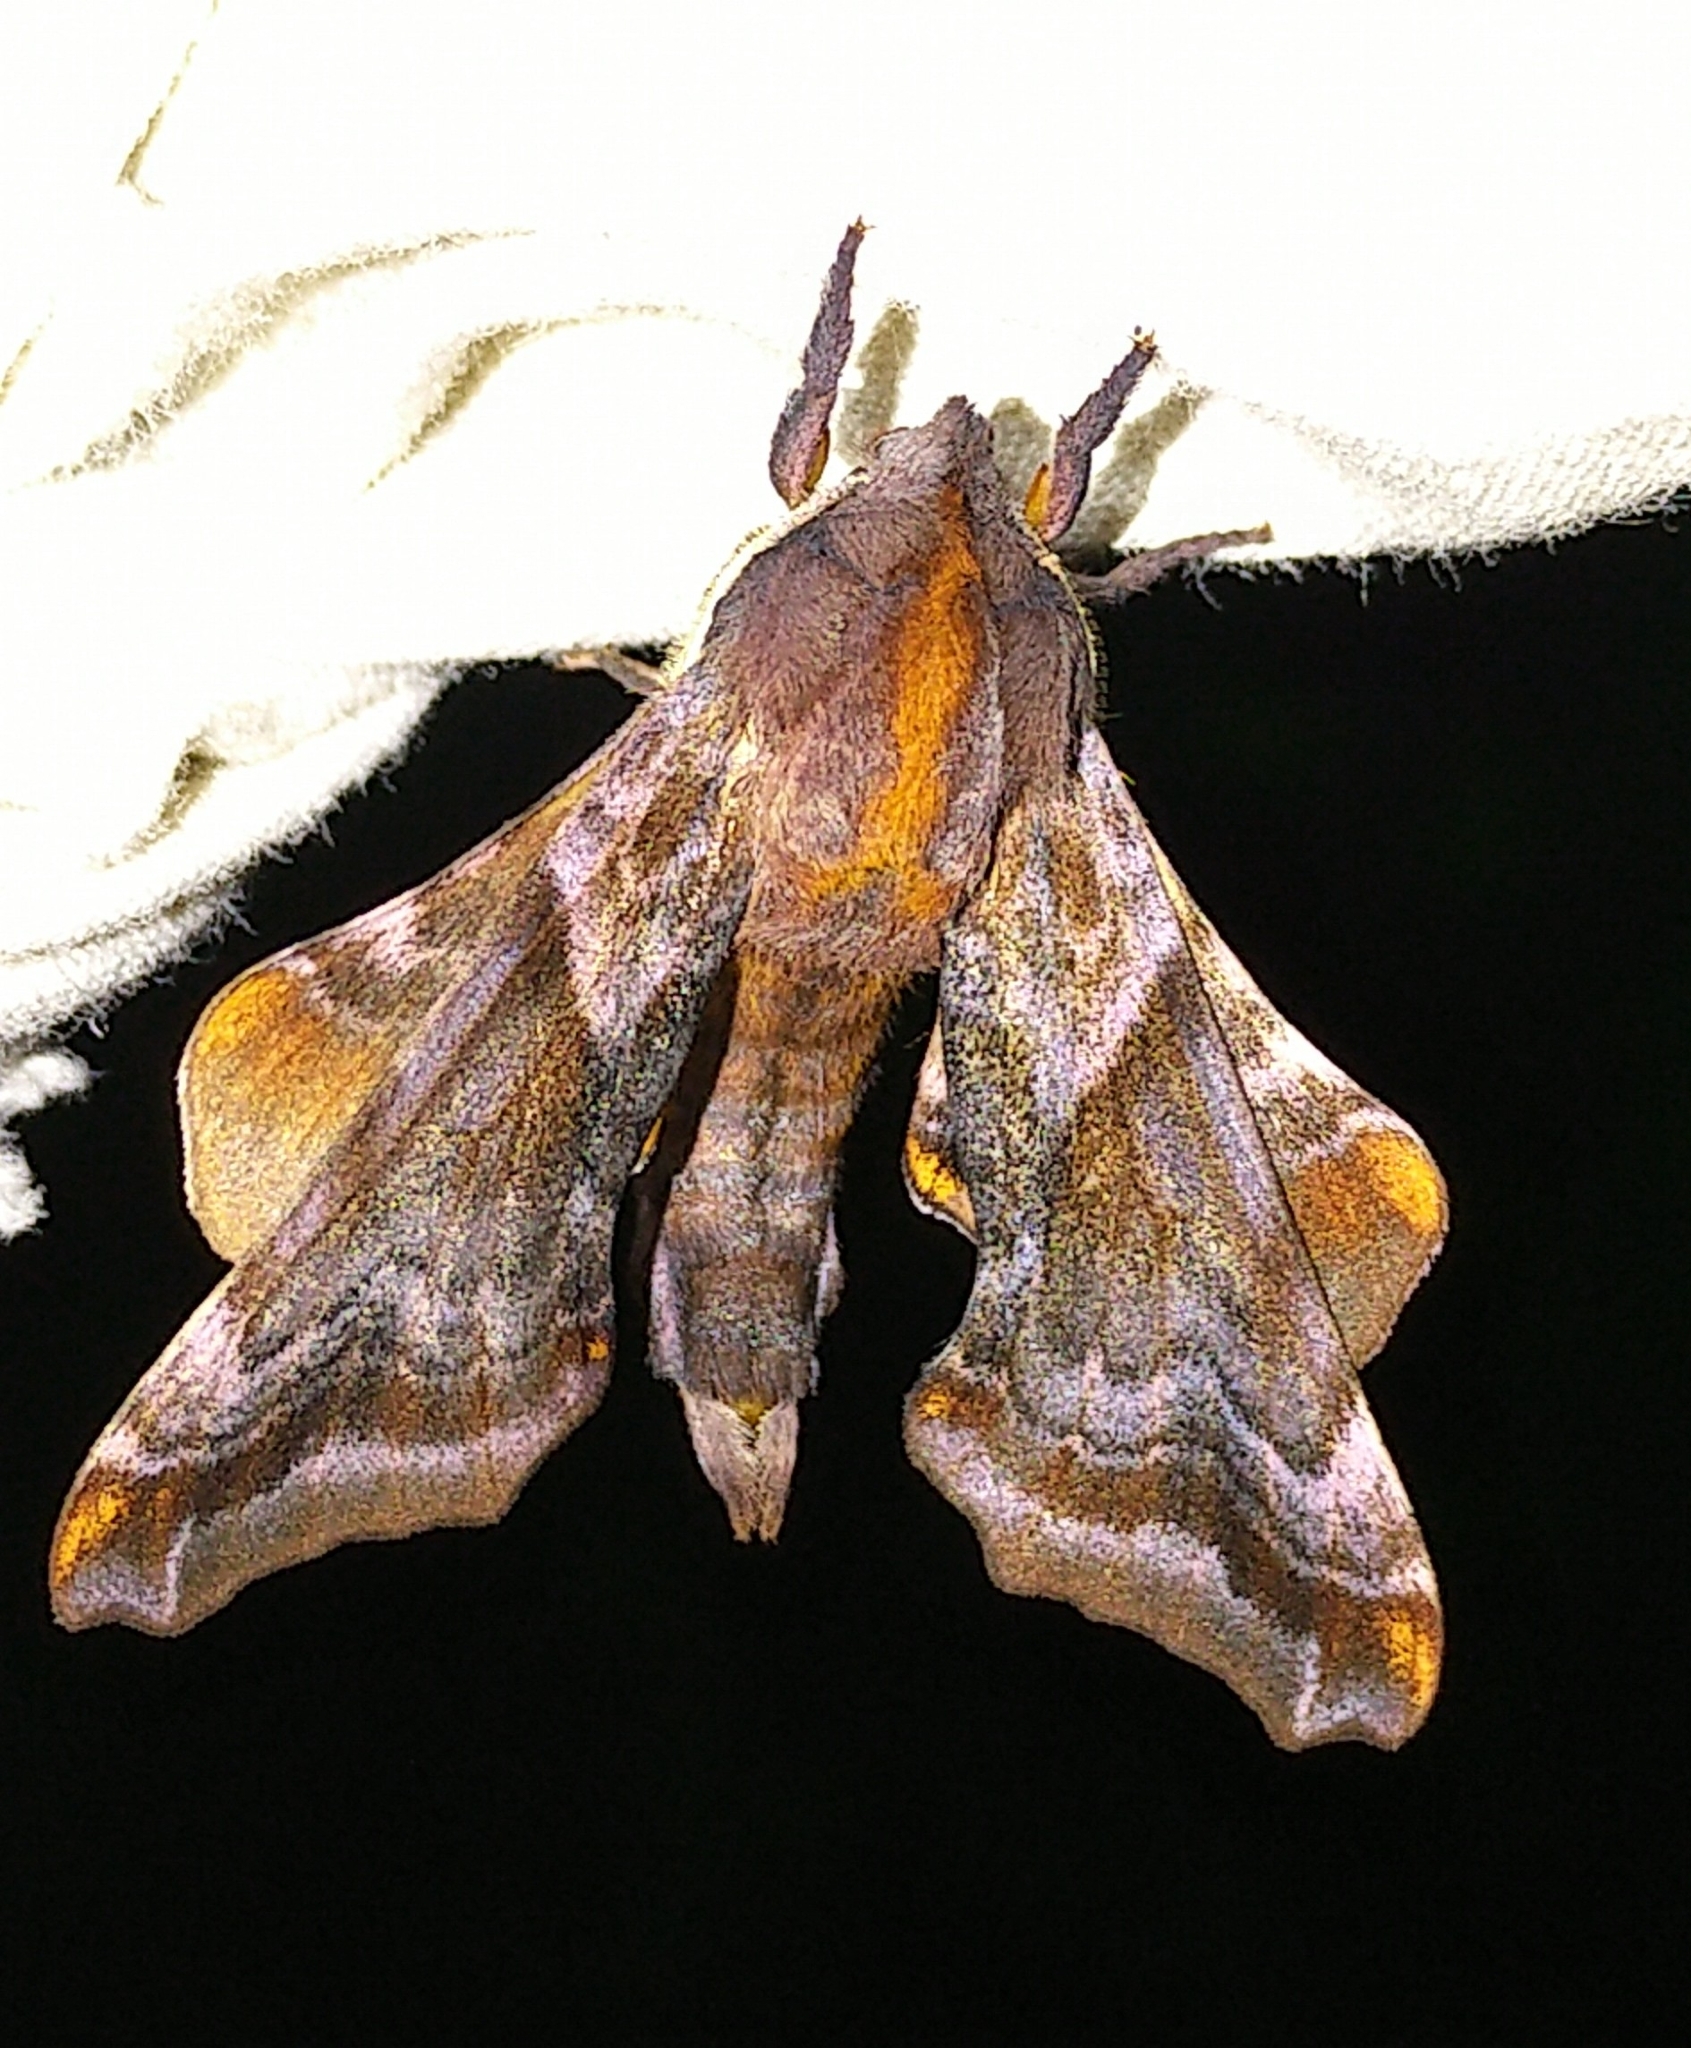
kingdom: Animalia
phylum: Arthropoda
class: Insecta
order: Lepidoptera
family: Sphingidae
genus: Paonias
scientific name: Paonias myops
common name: Small-eyed sphinx
